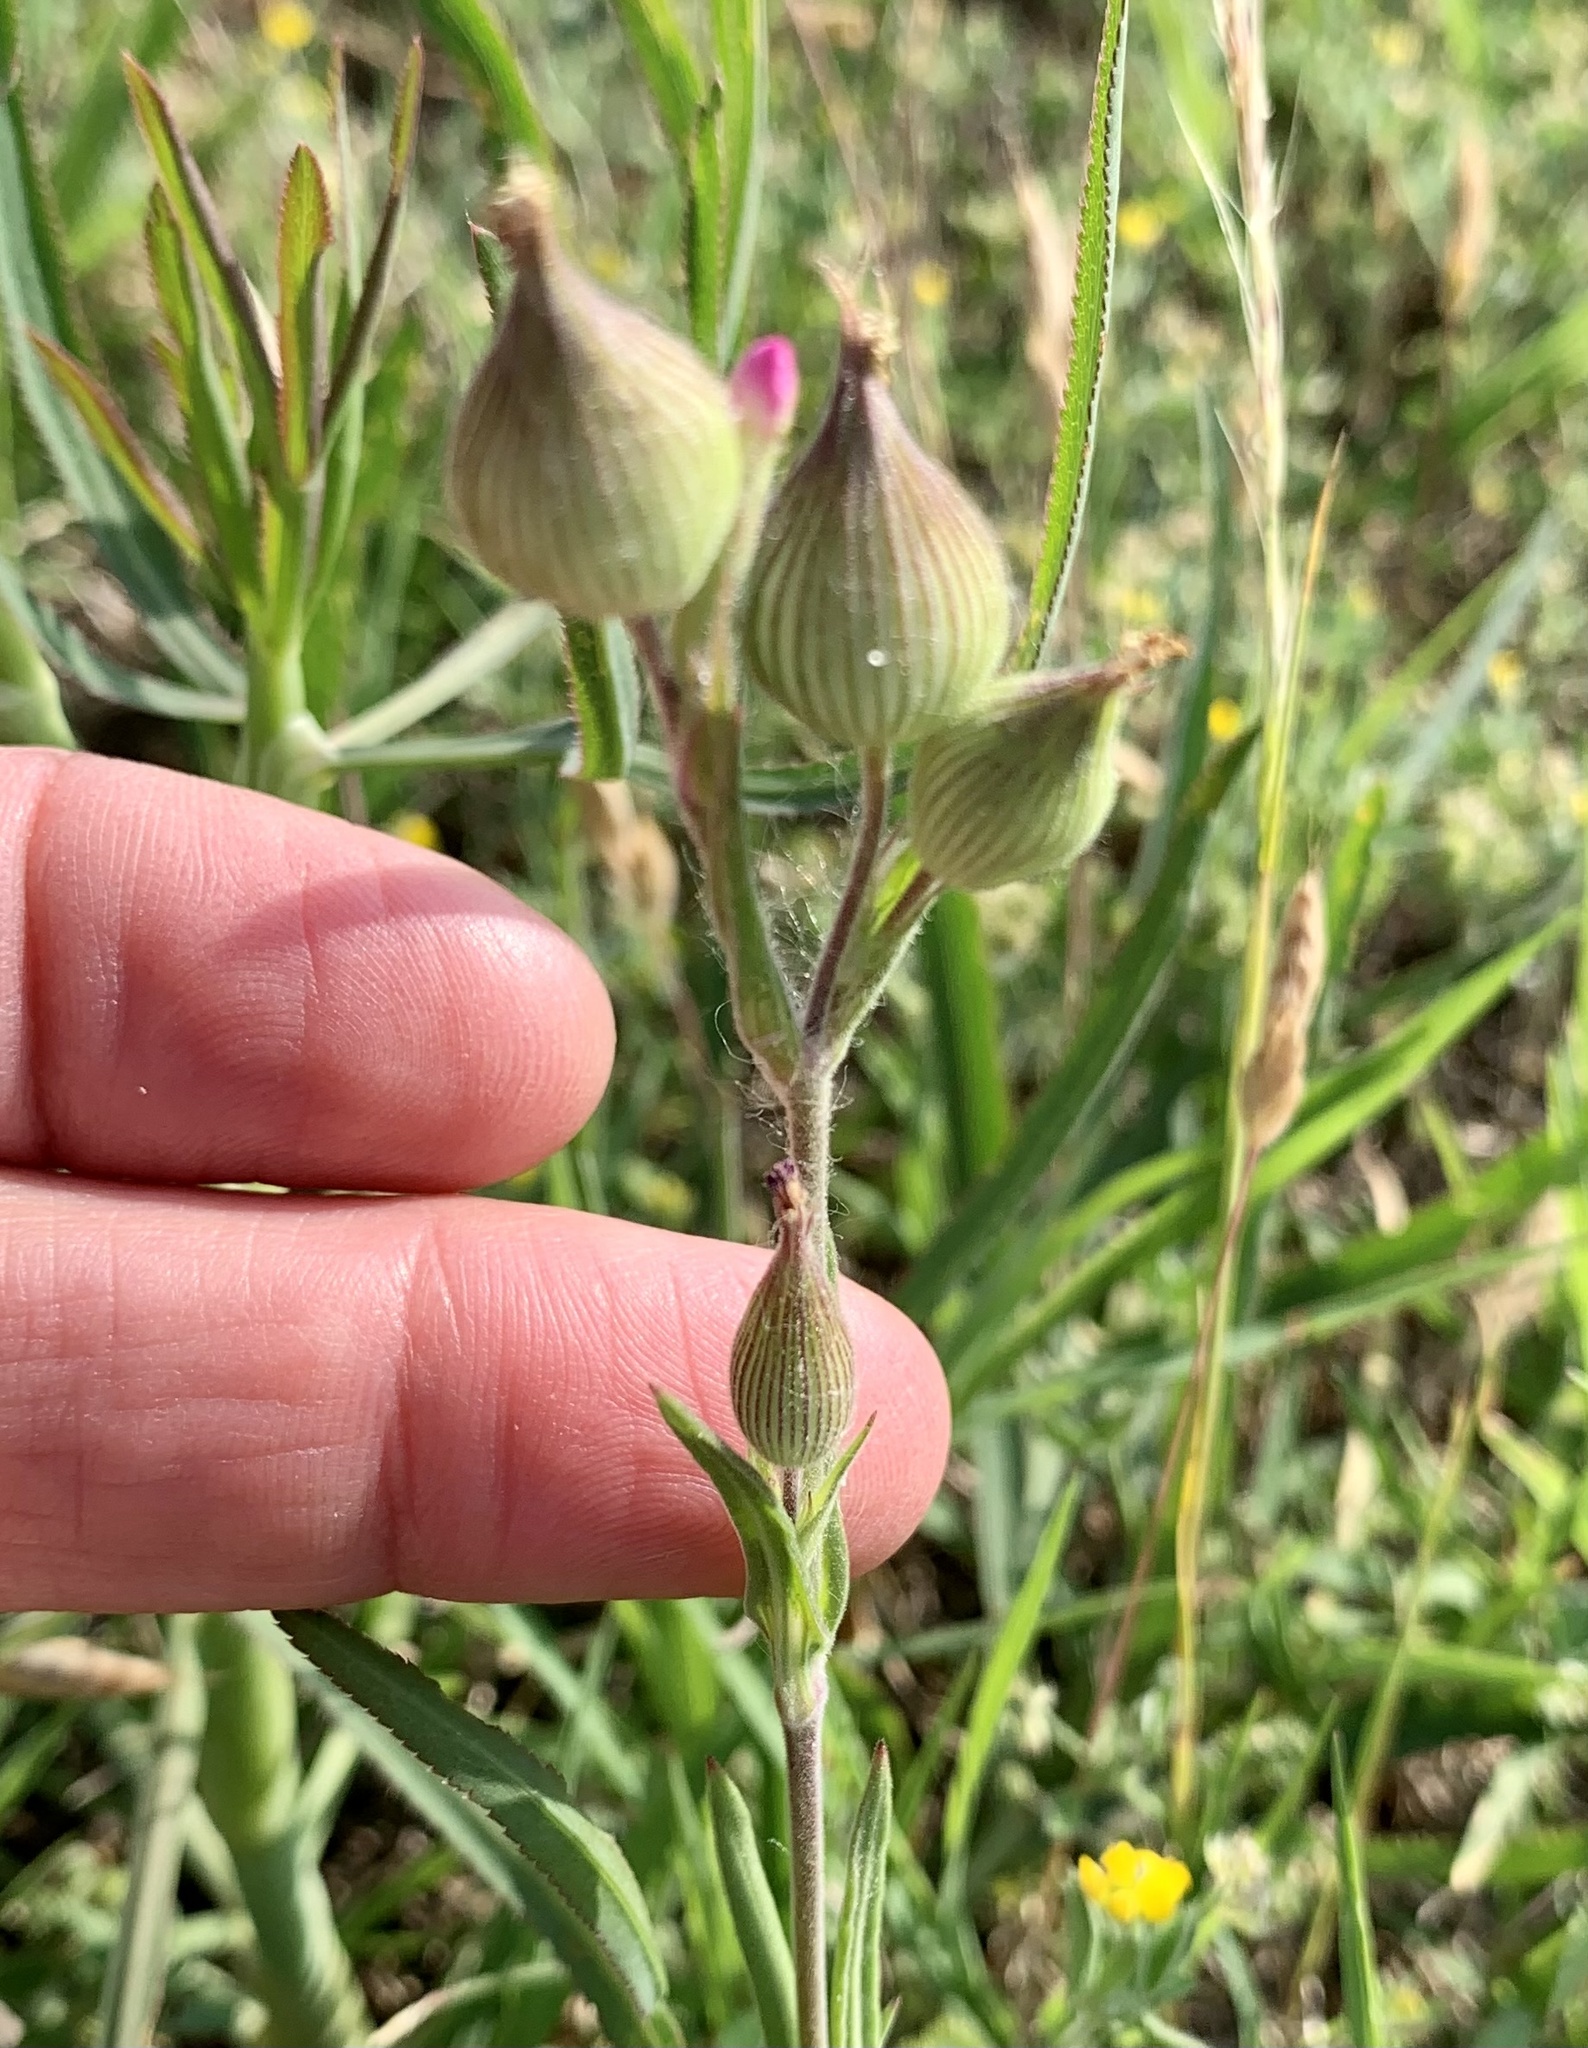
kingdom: Plantae
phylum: Tracheophyta
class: Magnoliopsida
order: Caryophyllales
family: Caryophyllaceae
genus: Silene
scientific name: Silene conica
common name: Sand catchfly
